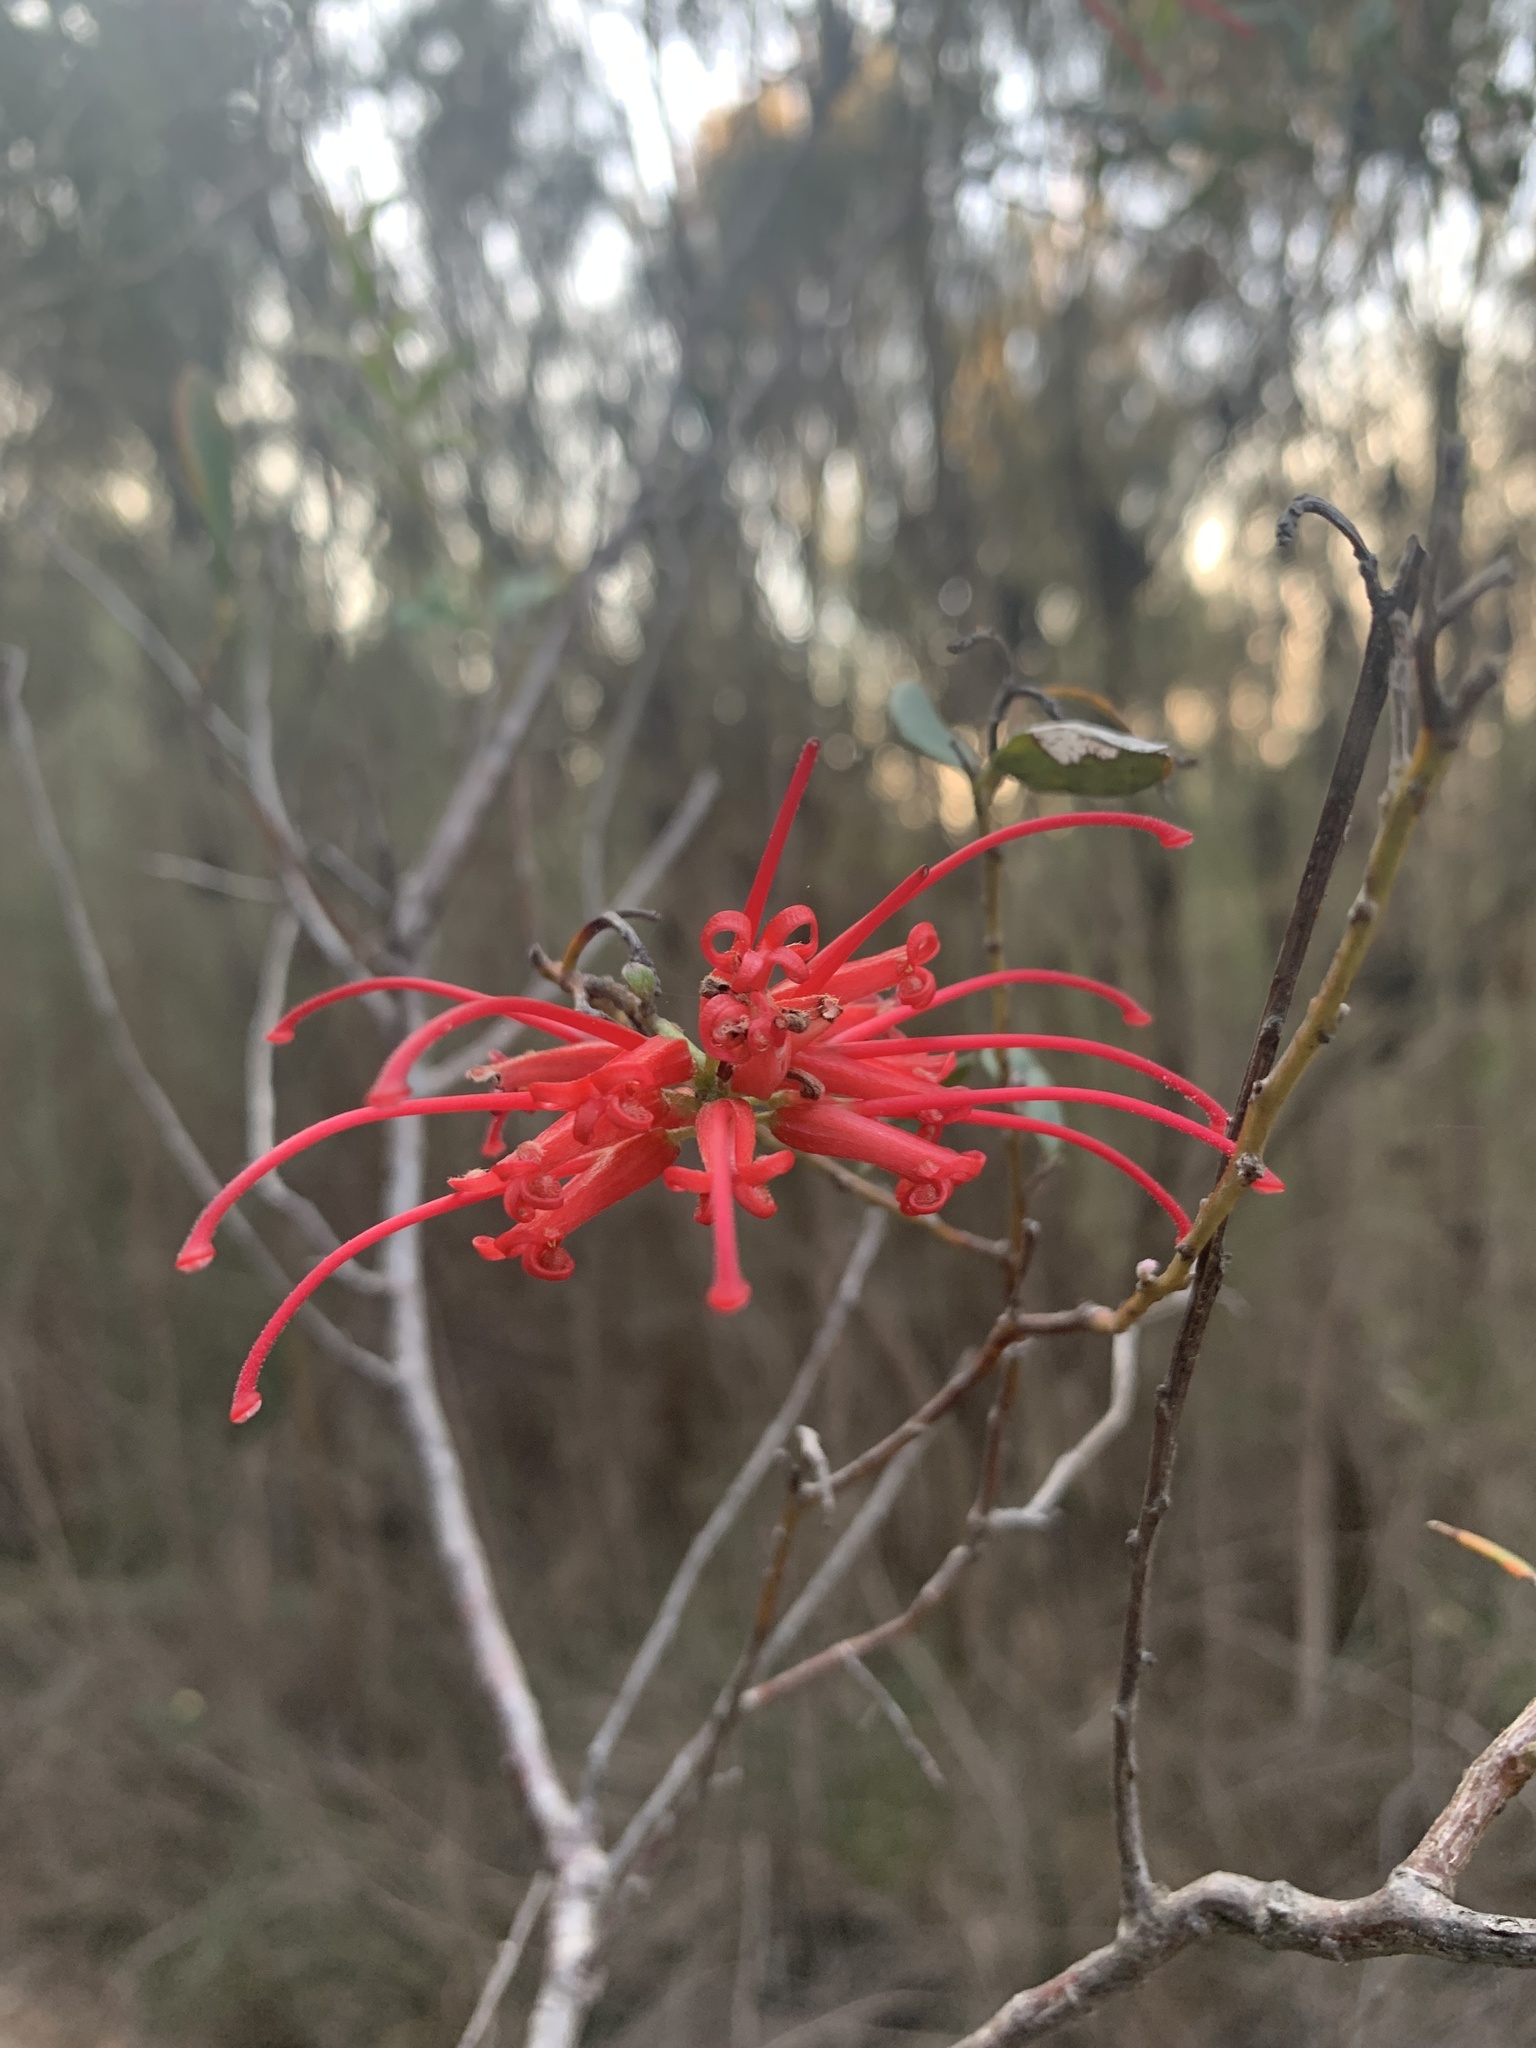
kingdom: Plantae
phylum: Tracheophyta
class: Magnoliopsida
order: Proteales
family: Proteaceae
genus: Grevillea
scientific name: Grevillea speciosa
